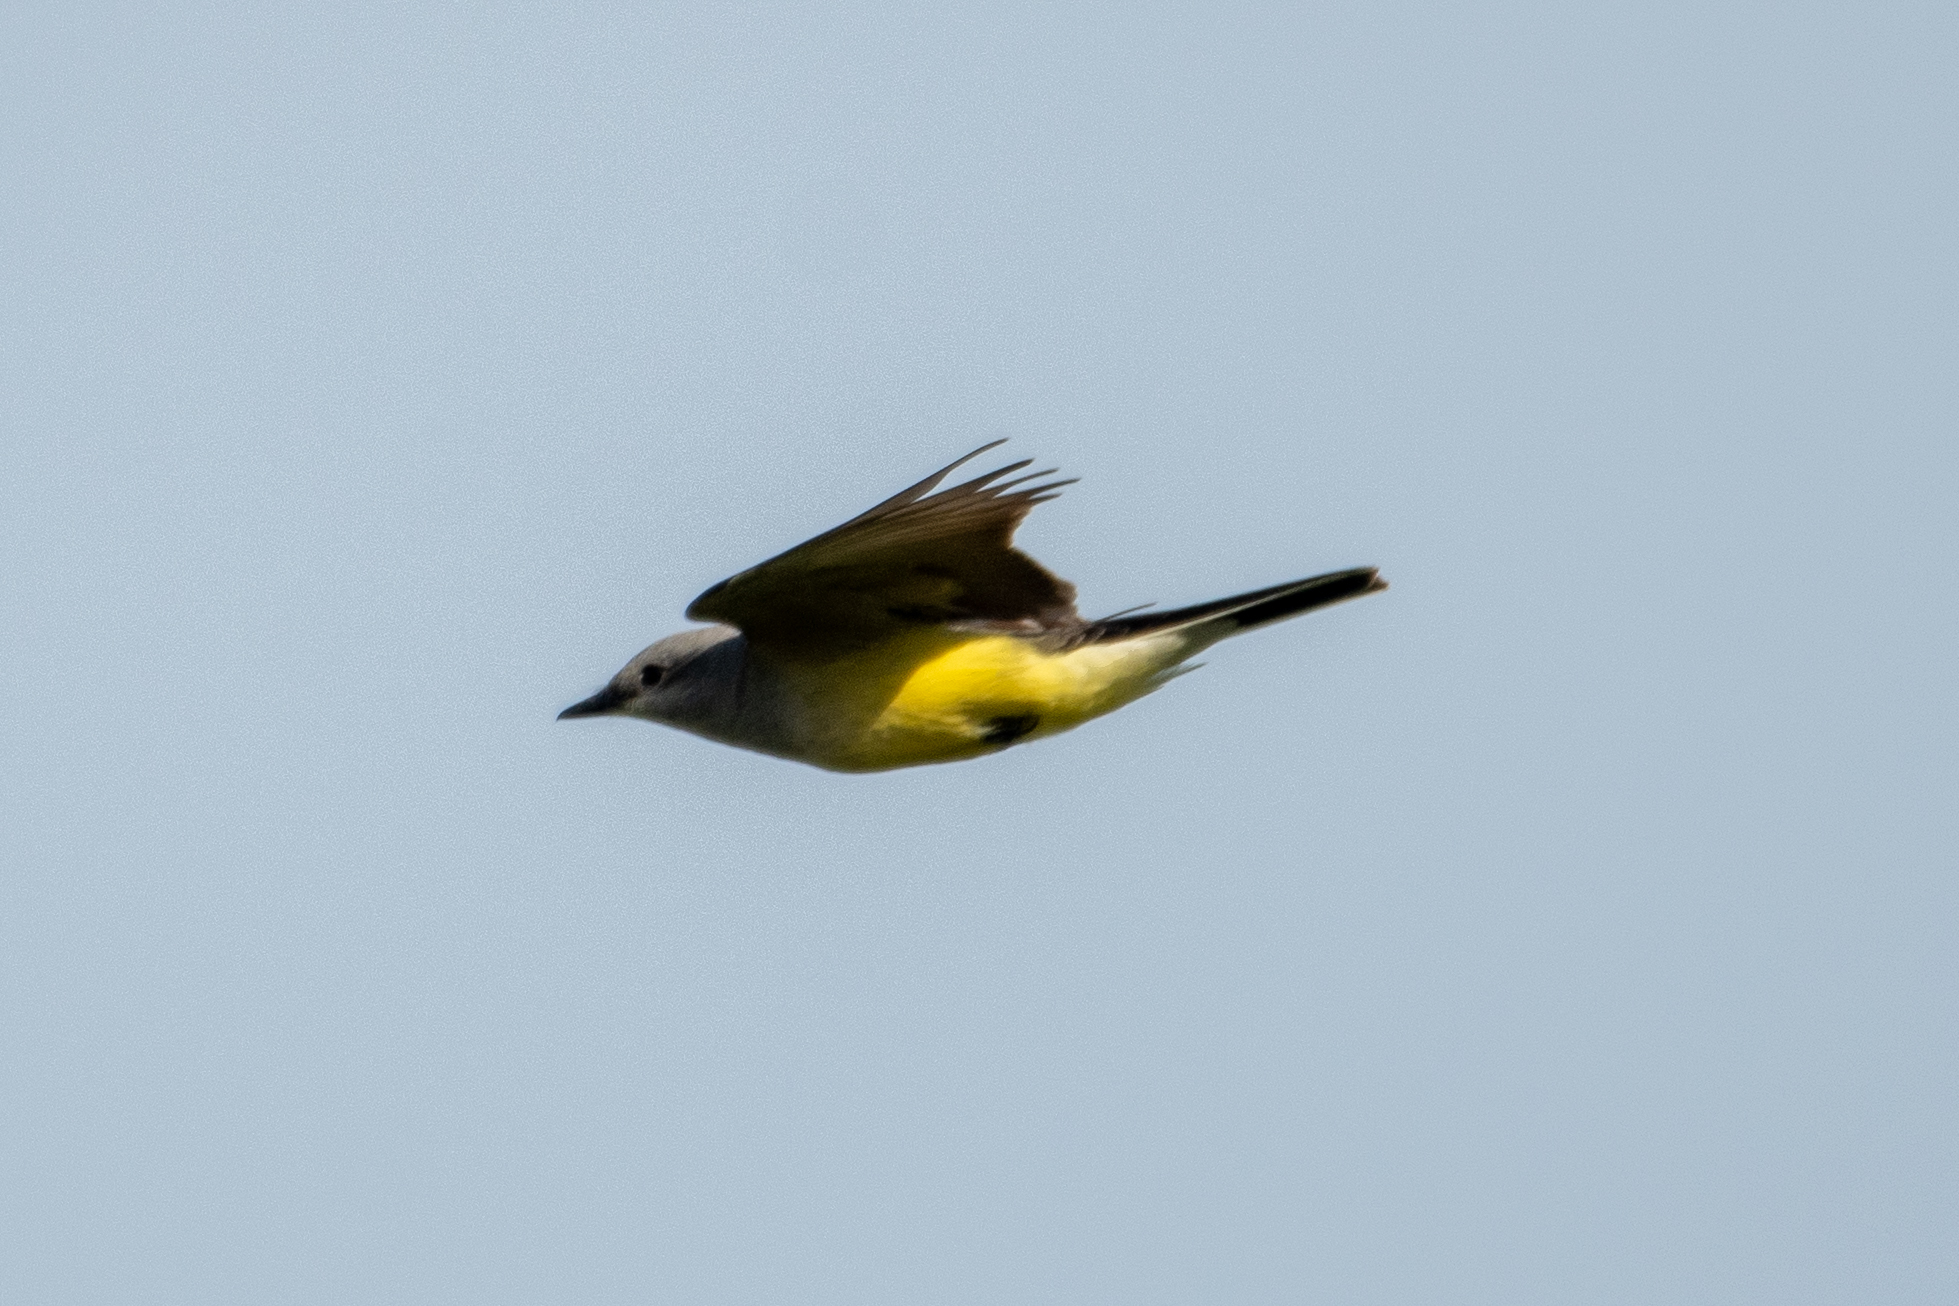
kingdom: Animalia
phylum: Chordata
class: Aves
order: Passeriformes
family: Tyrannidae
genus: Tyrannus
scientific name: Tyrannus verticalis
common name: Western kingbird
